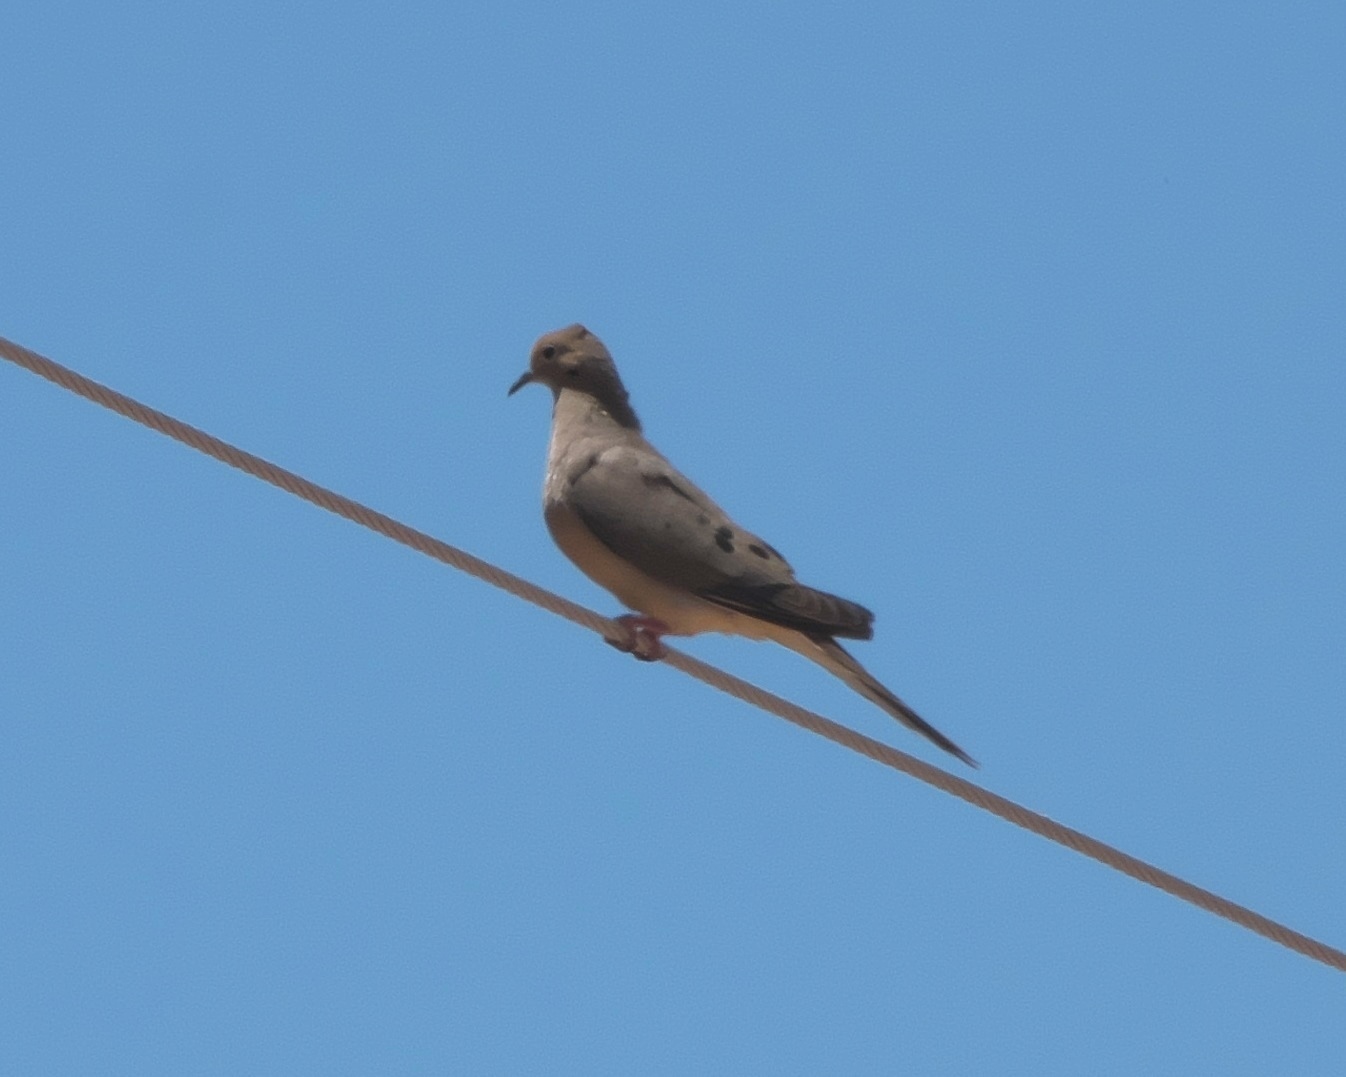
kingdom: Animalia
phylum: Chordata
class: Aves
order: Columbiformes
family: Columbidae
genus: Zenaida
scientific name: Zenaida macroura
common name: Mourning dove
